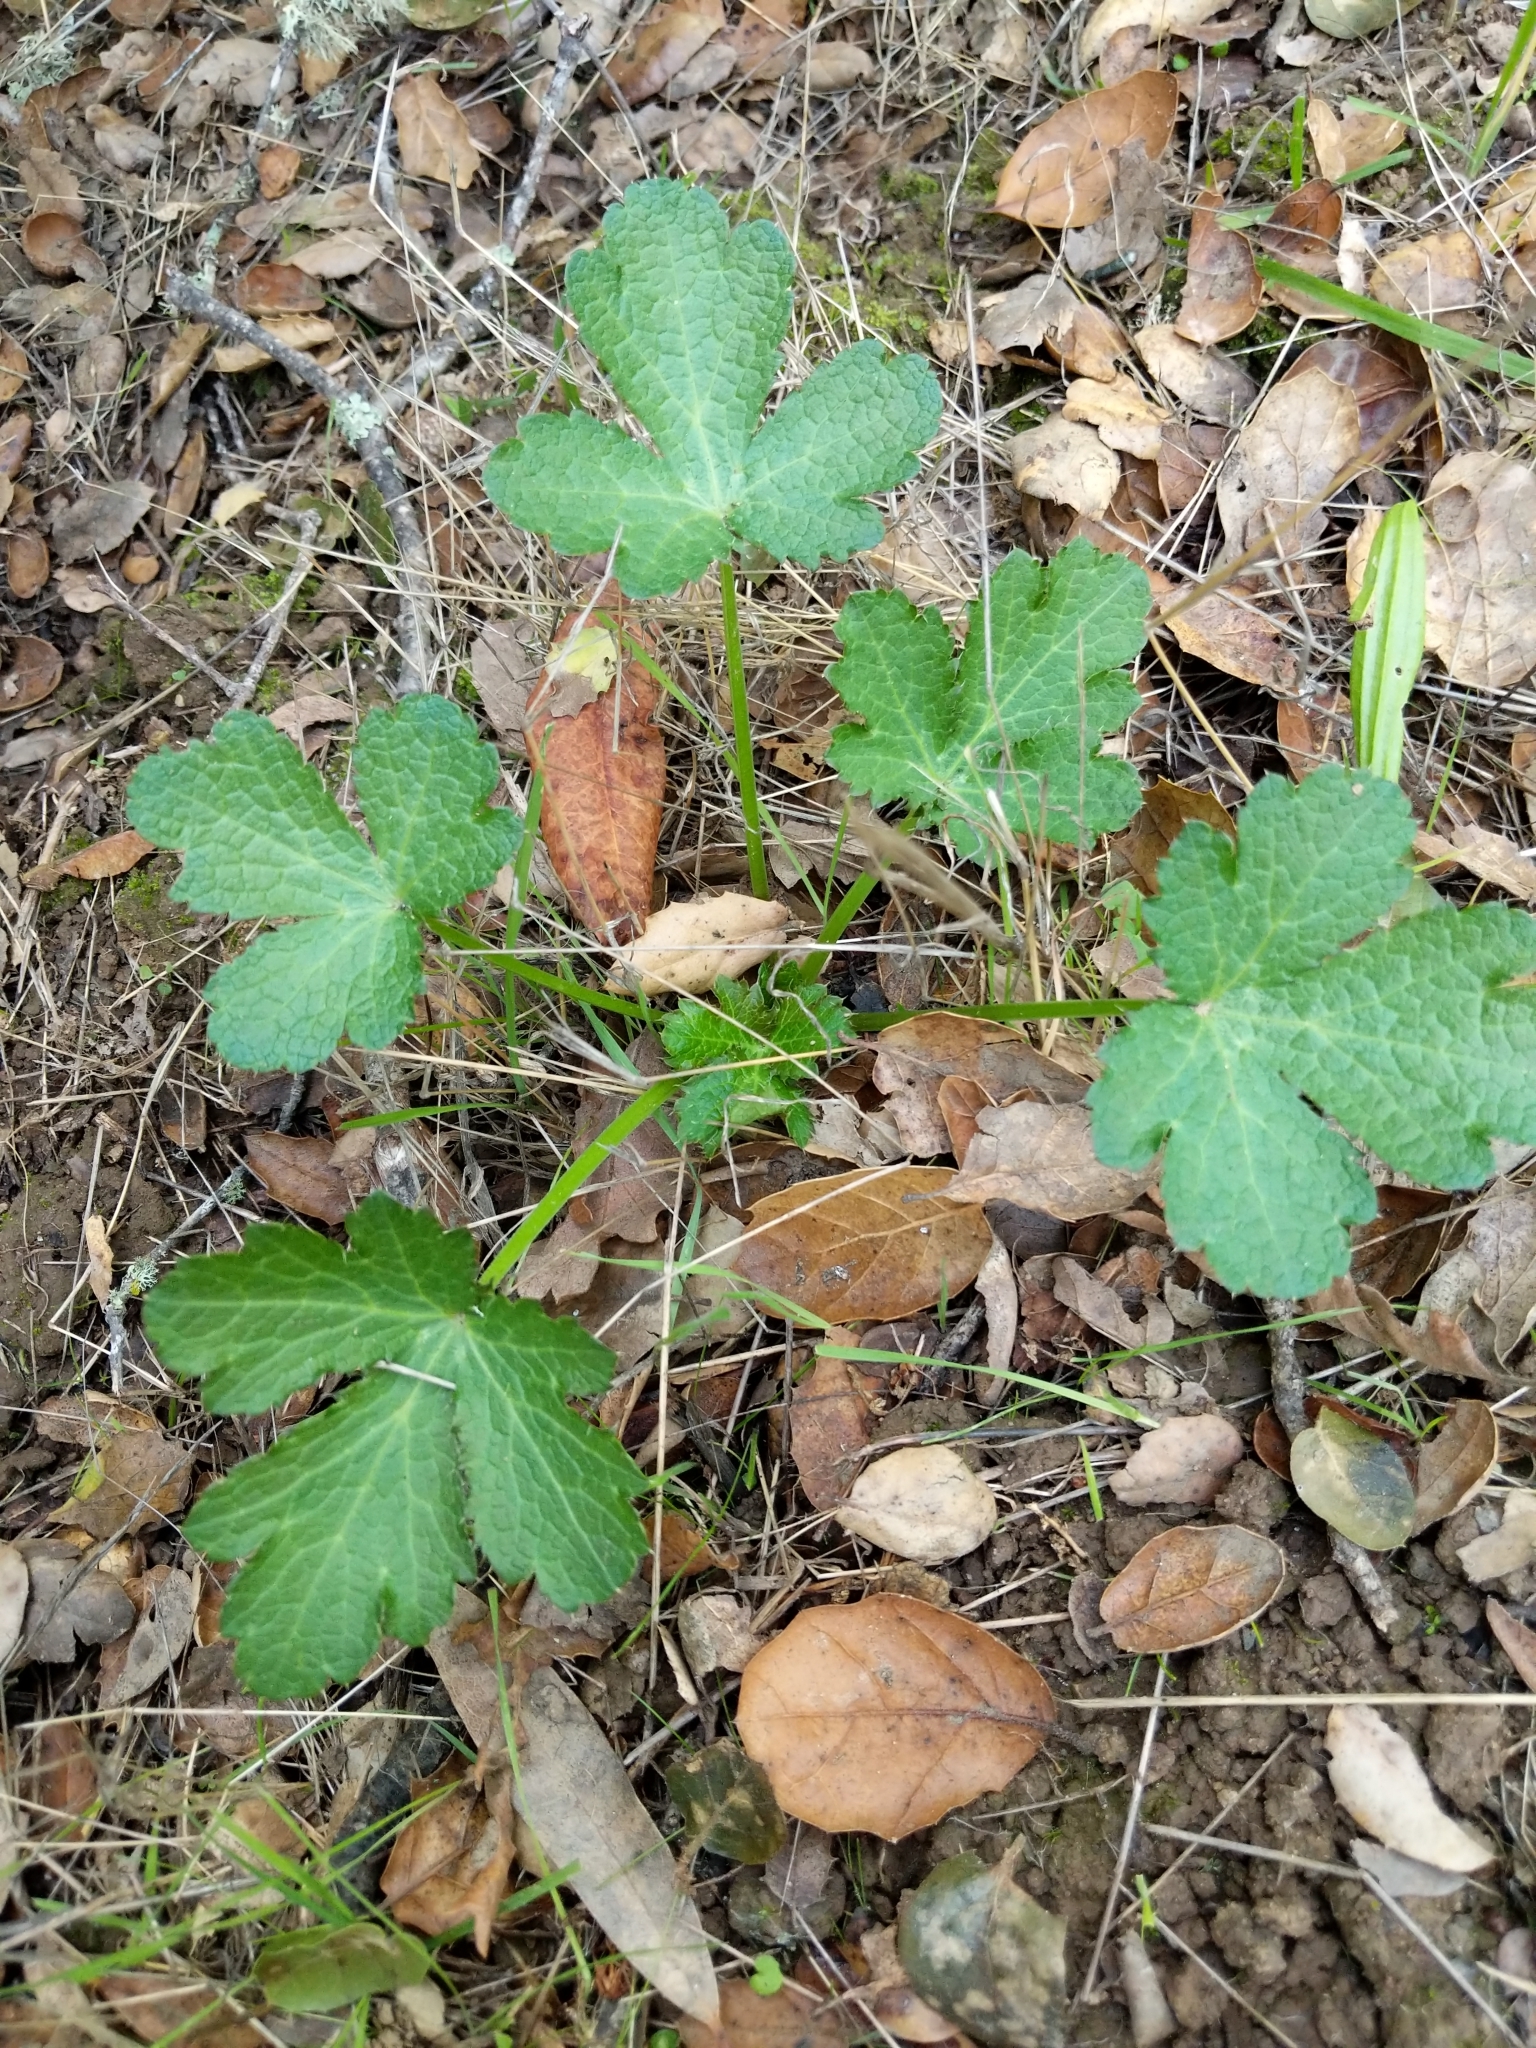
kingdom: Plantae
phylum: Tracheophyta
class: Magnoliopsida
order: Apiales
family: Apiaceae
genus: Sanicula
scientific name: Sanicula crassicaulis
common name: Western snakeroot
